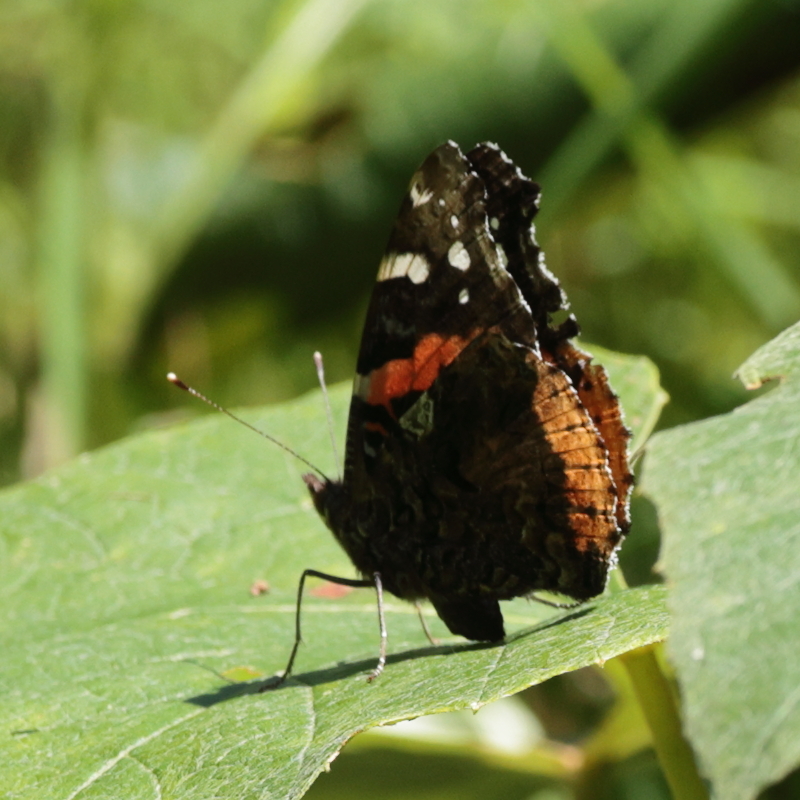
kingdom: Animalia
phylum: Arthropoda
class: Insecta
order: Lepidoptera
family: Nymphalidae
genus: Vanessa
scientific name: Vanessa atalanta
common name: Red admiral
